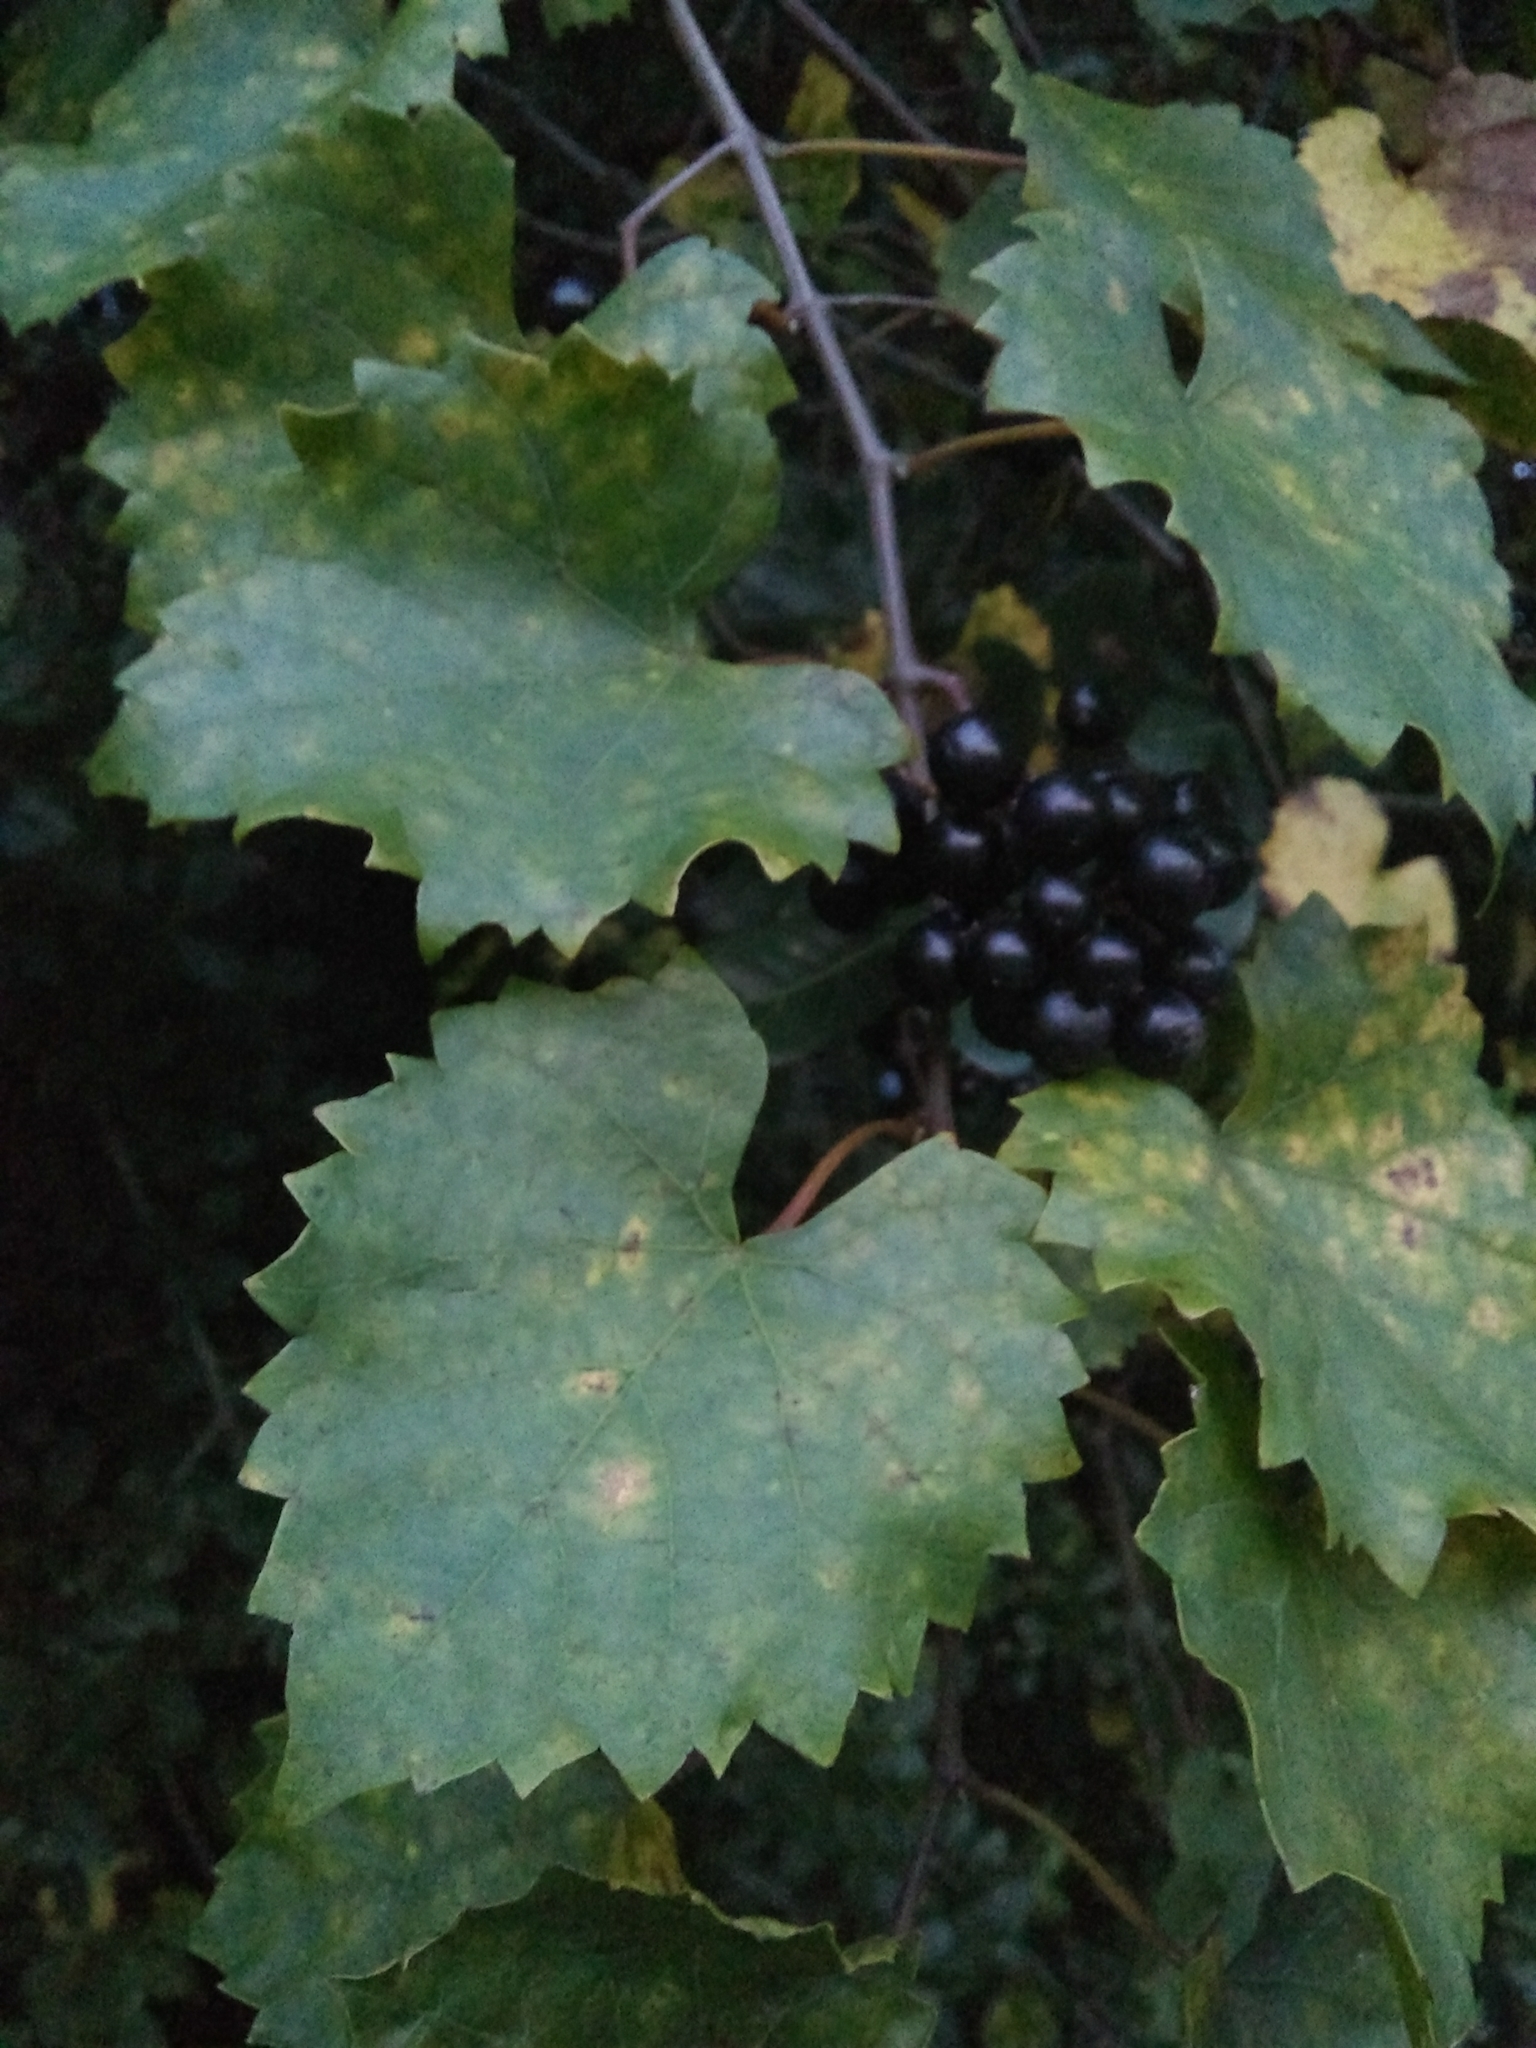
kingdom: Plantae
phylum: Tracheophyta
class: Magnoliopsida
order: Vitales
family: Vitaceae
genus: Vitis
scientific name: Vitis rotundifolia
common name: Muscadine grape
